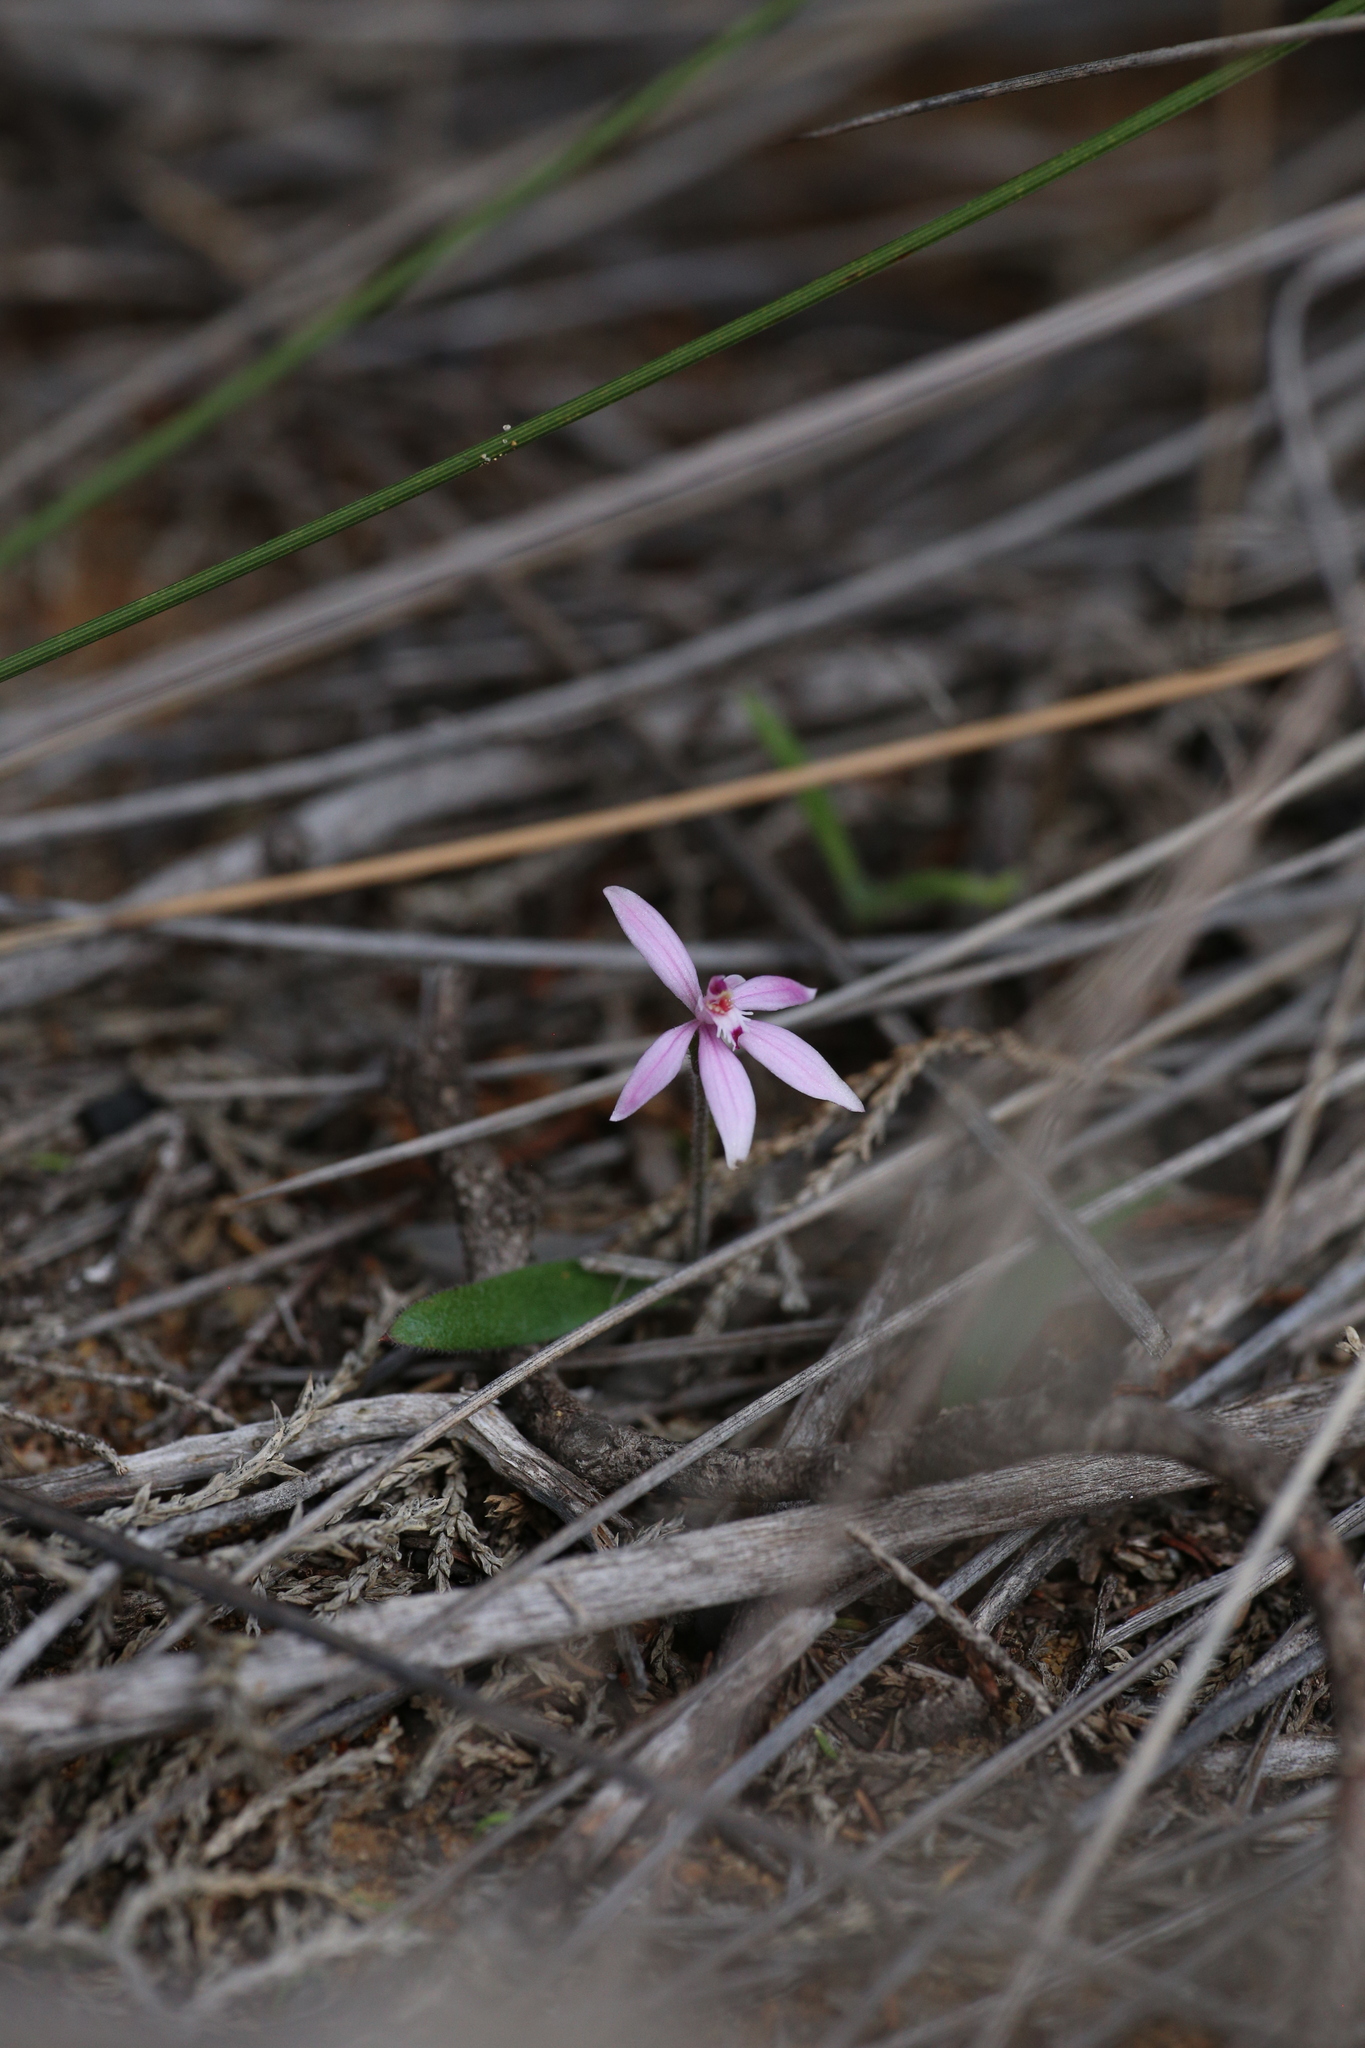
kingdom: Plantae
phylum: Tracheophyta
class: Liliopsida
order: Asparagales
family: Orchidaceae
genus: Caladenia
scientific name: Caladenia reptans
